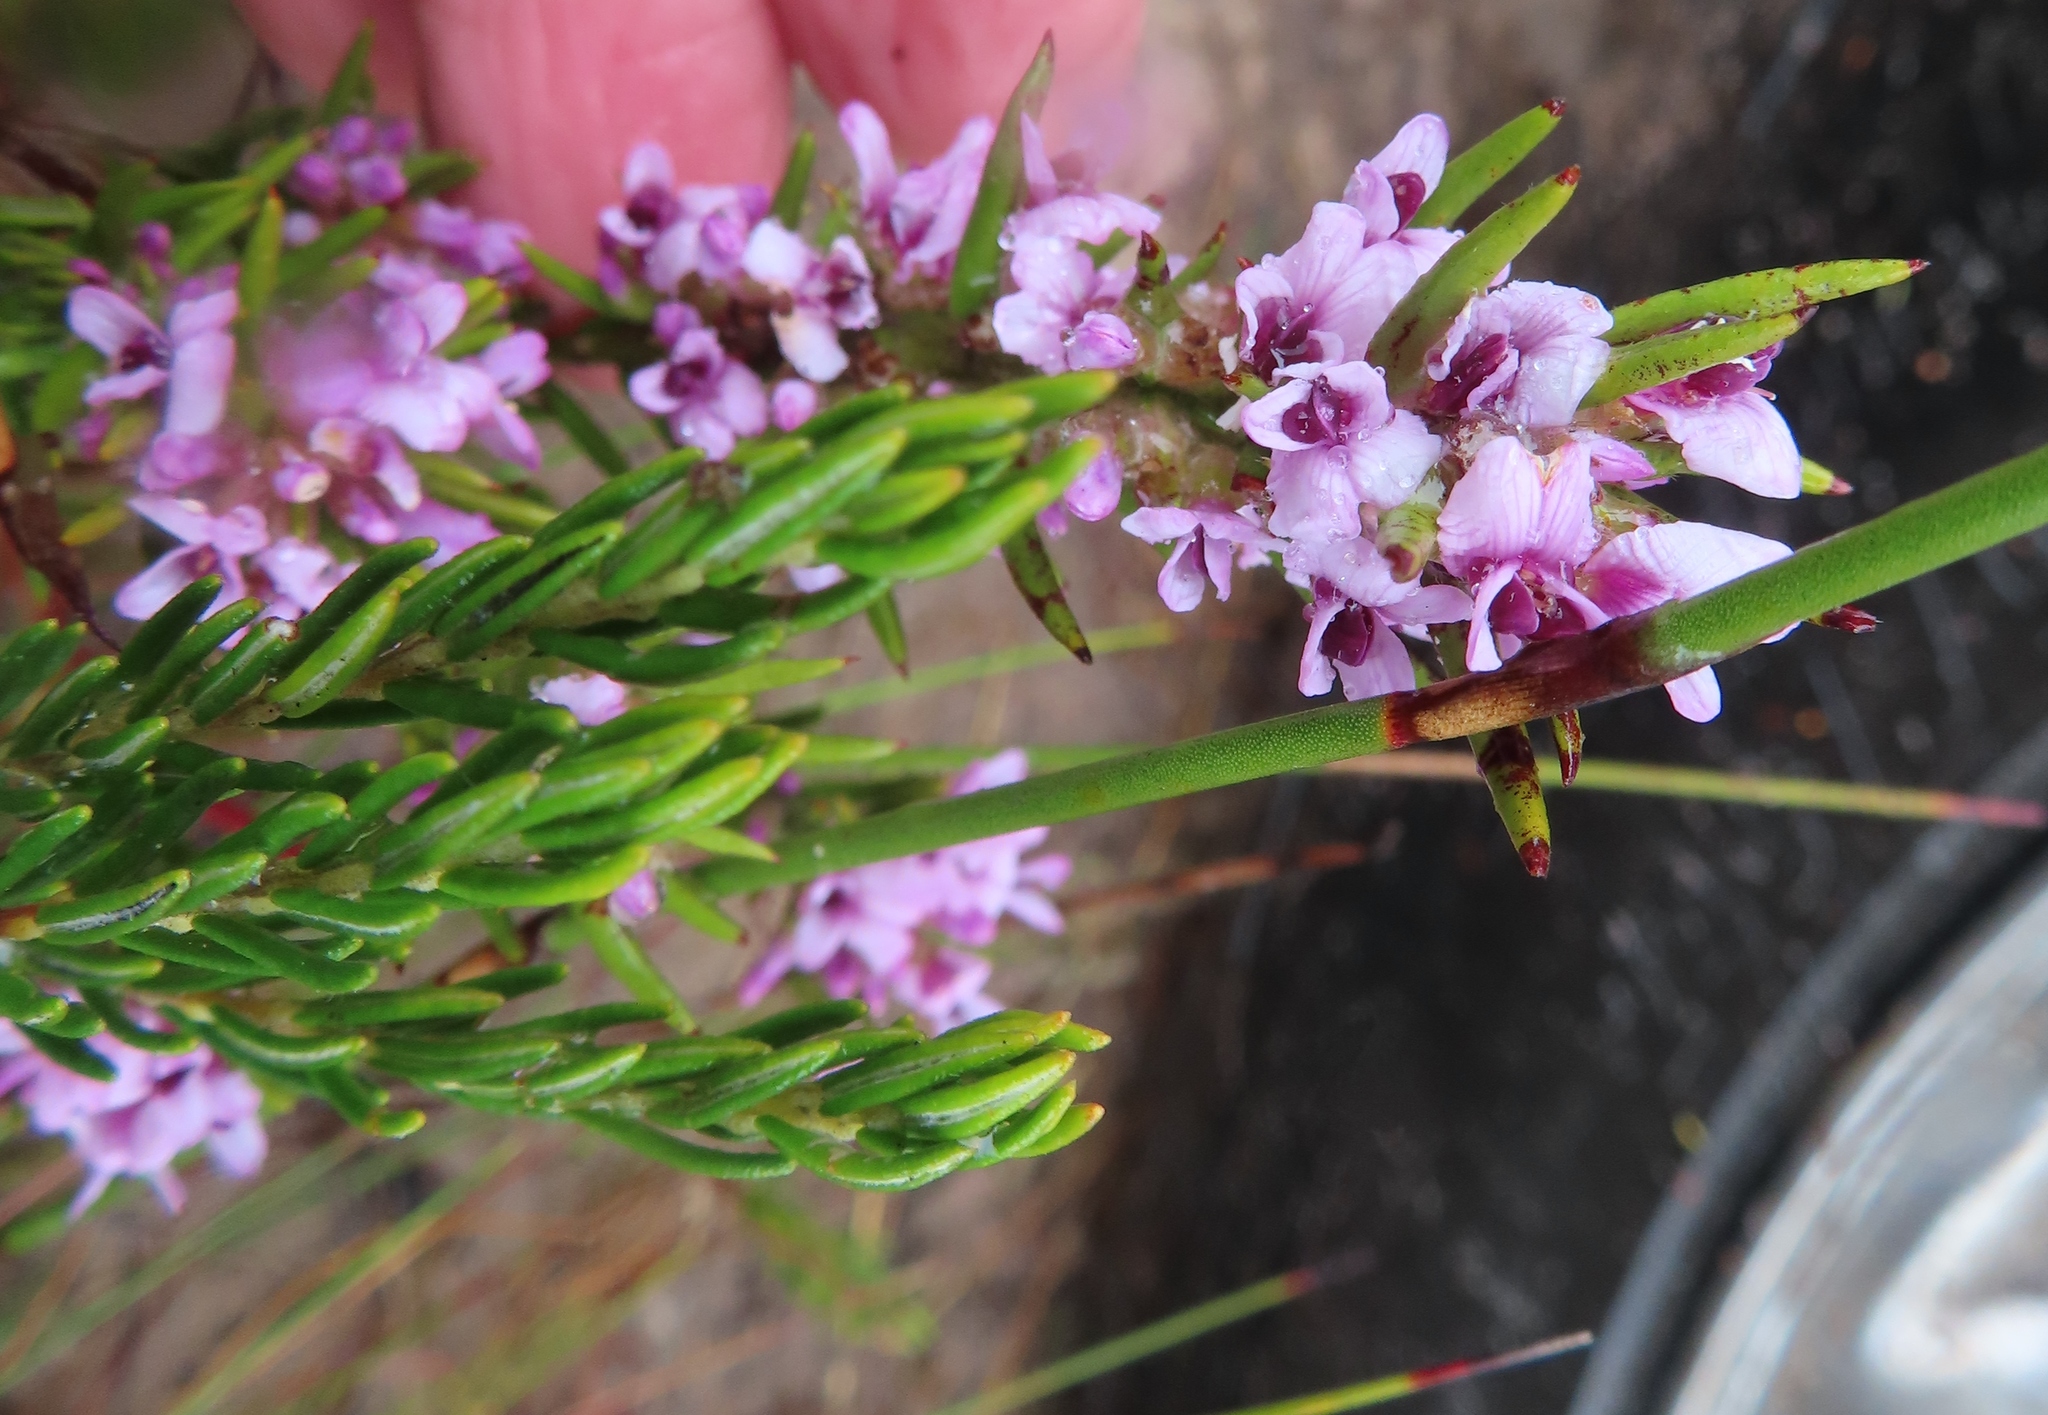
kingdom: Plantae
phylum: Tracheophyta
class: Magnoliopsida
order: Fabales
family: Fabaceae
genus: Amphithalea
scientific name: Amphithalea ericifolia
